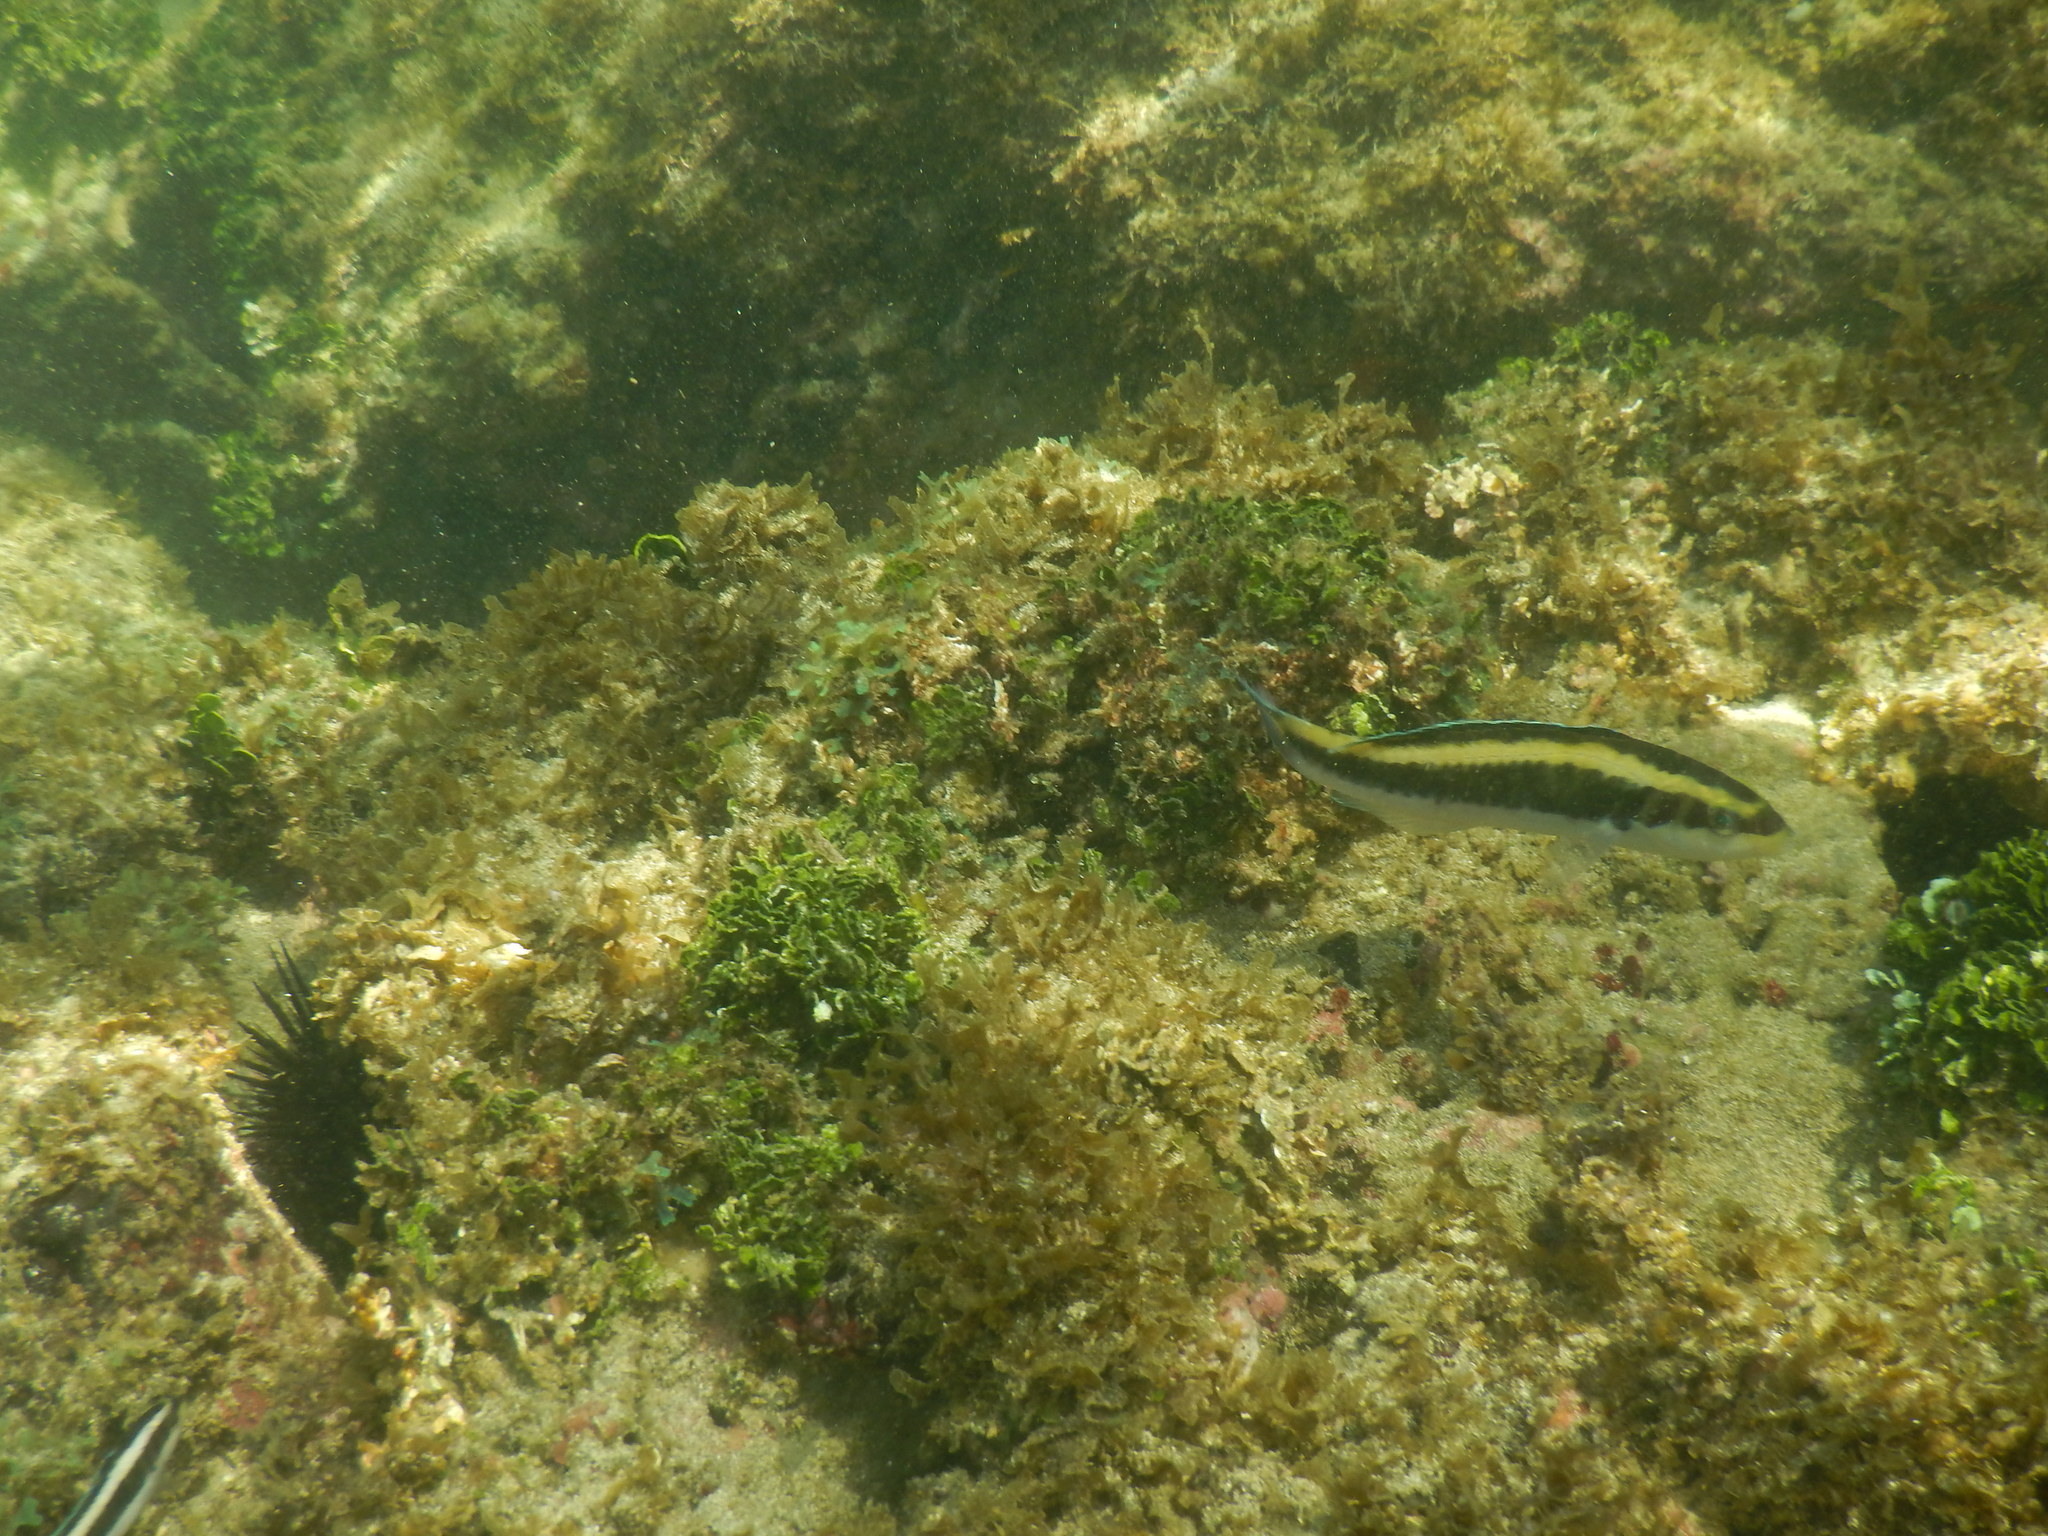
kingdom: Animalia
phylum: Chordata
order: Perciformes
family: Labridae
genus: Thalassoma
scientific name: Thalassoma bifasciatum
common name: Bluehead wrasse
